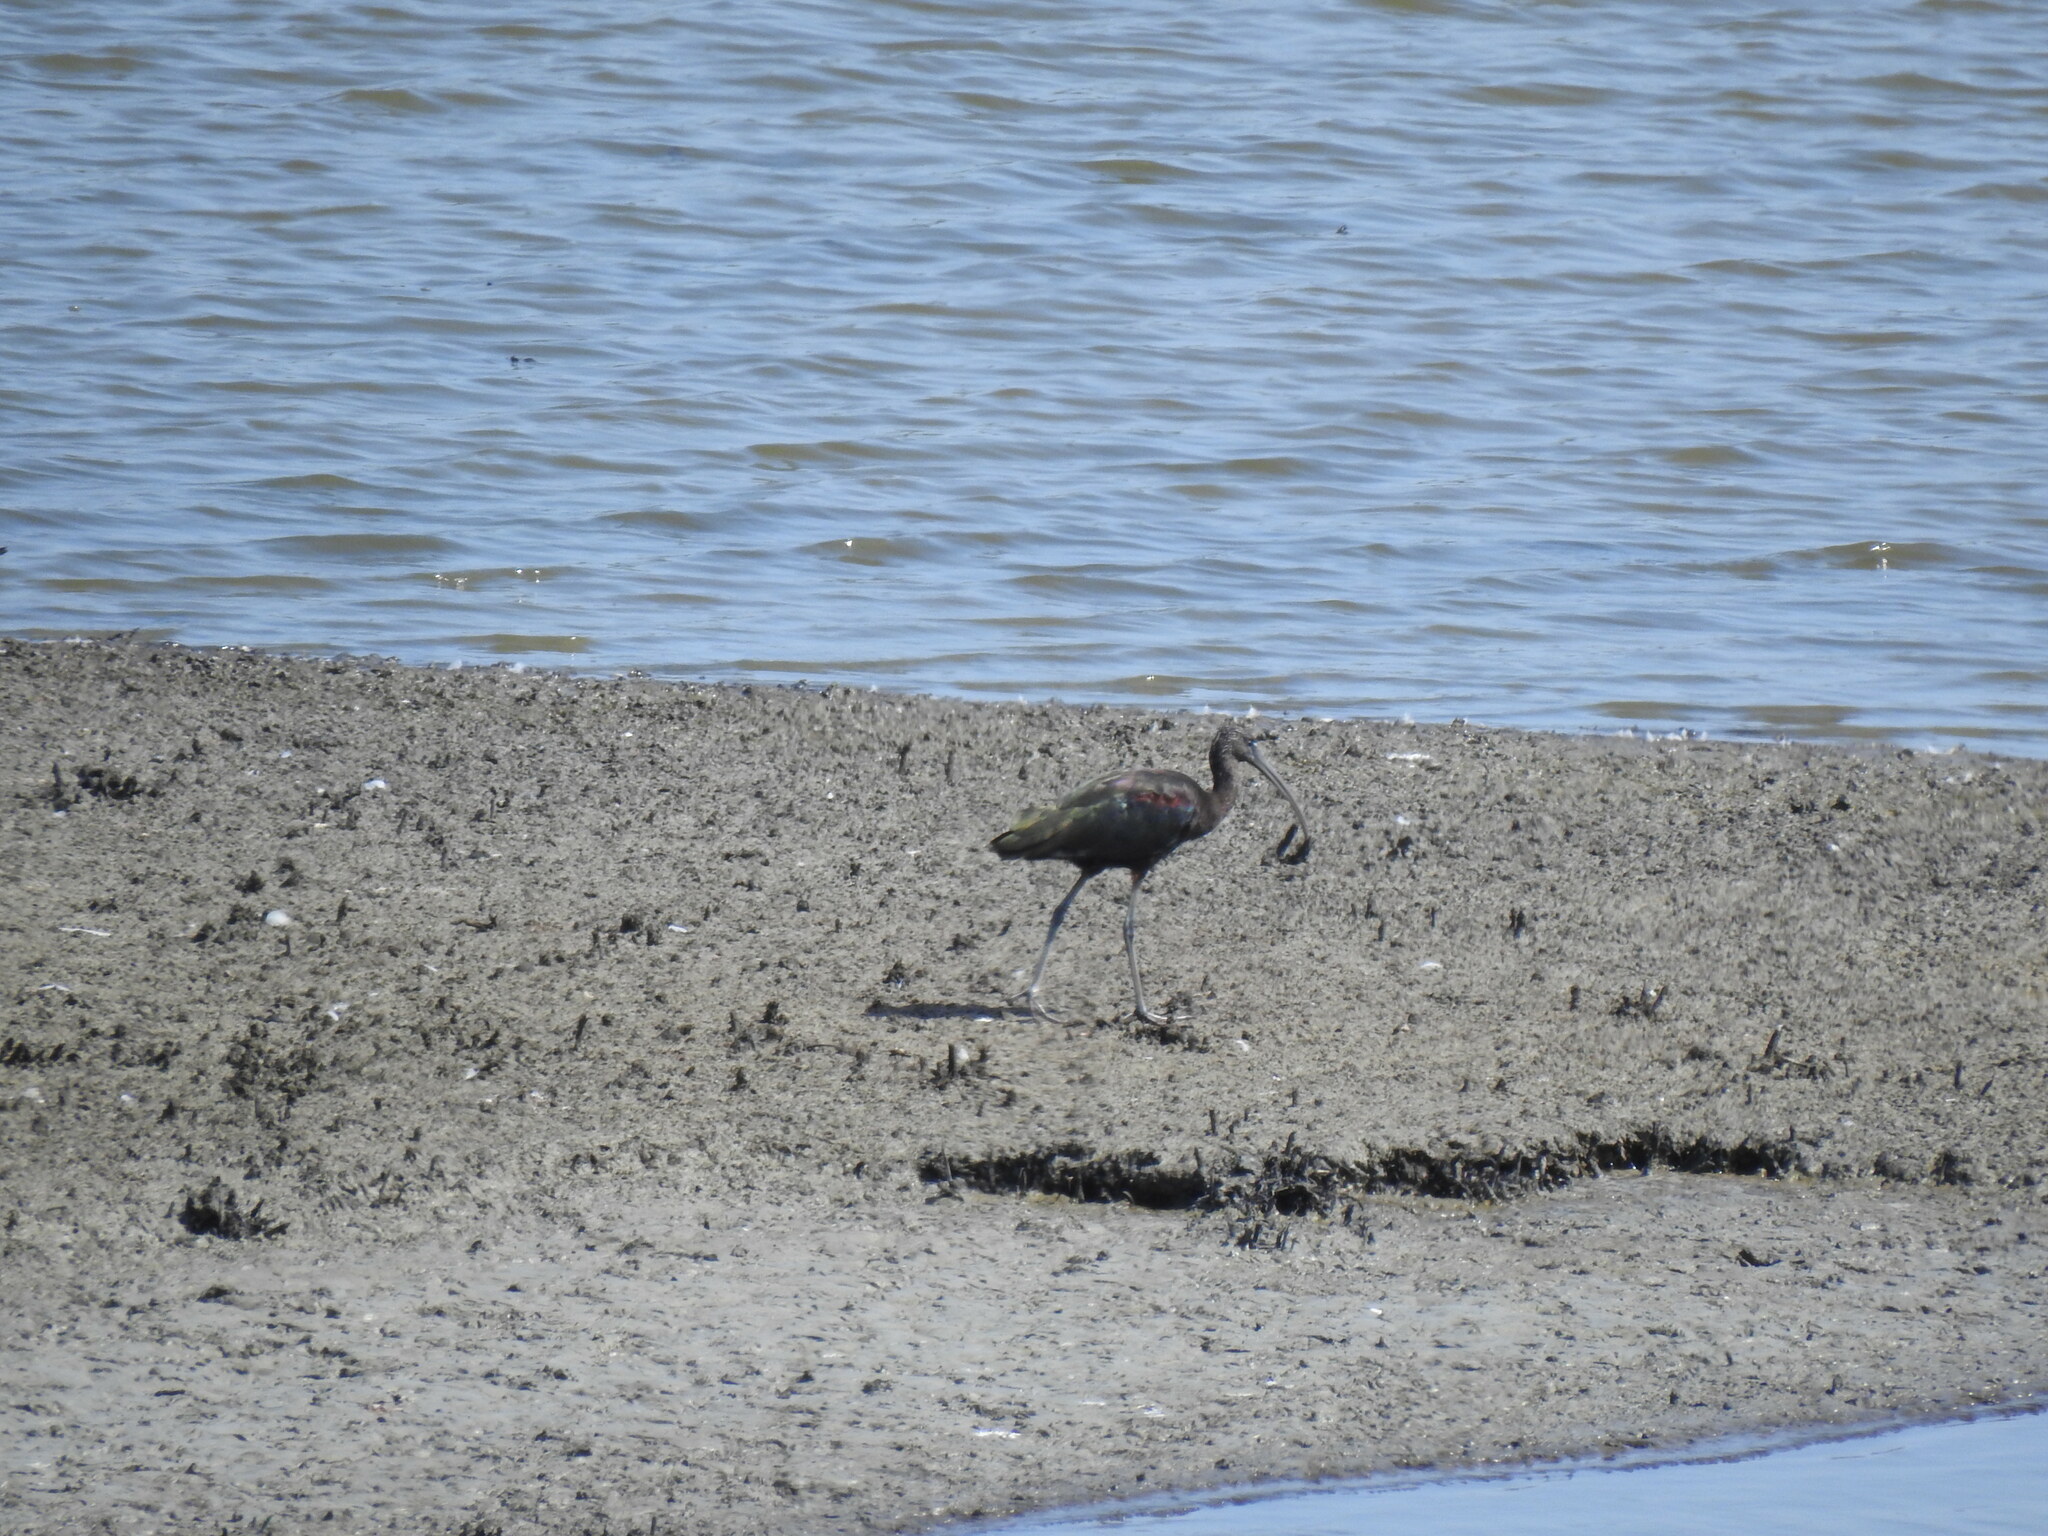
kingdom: Animalia
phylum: Chordata
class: Aves
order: Pelecaniformes
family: Threskiornithidae
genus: Plegadis
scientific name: Plegadis falcinellus
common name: Glossy ibis
